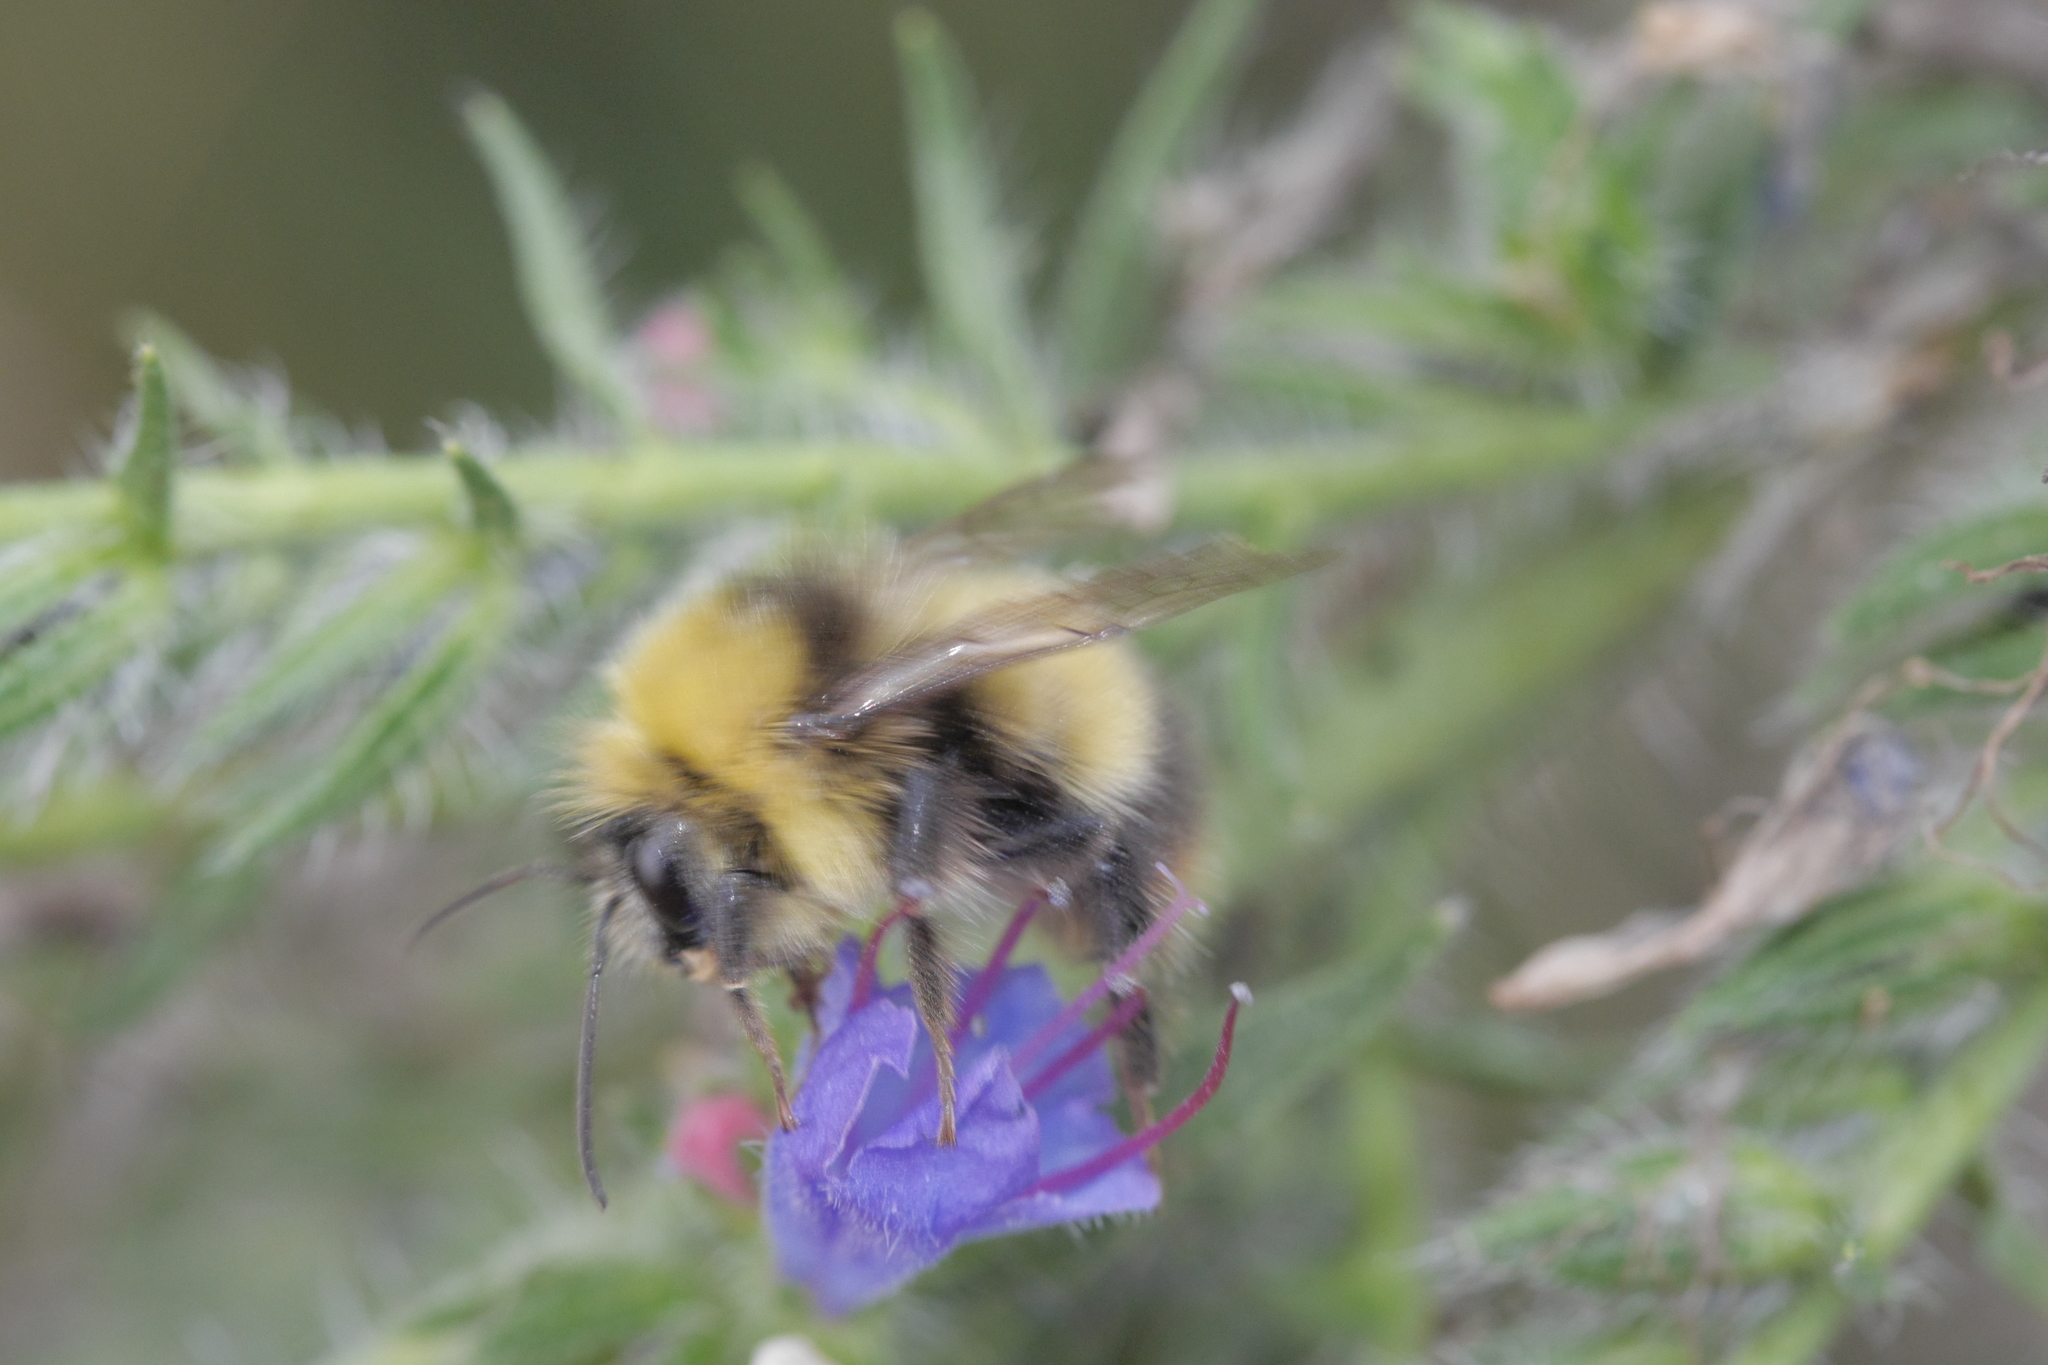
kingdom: Animalia
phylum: Arthropoda
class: Insecta
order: Hymenoptera
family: Apidae
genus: Bombus
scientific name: Bombus pratorum
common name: Early humble-bee
